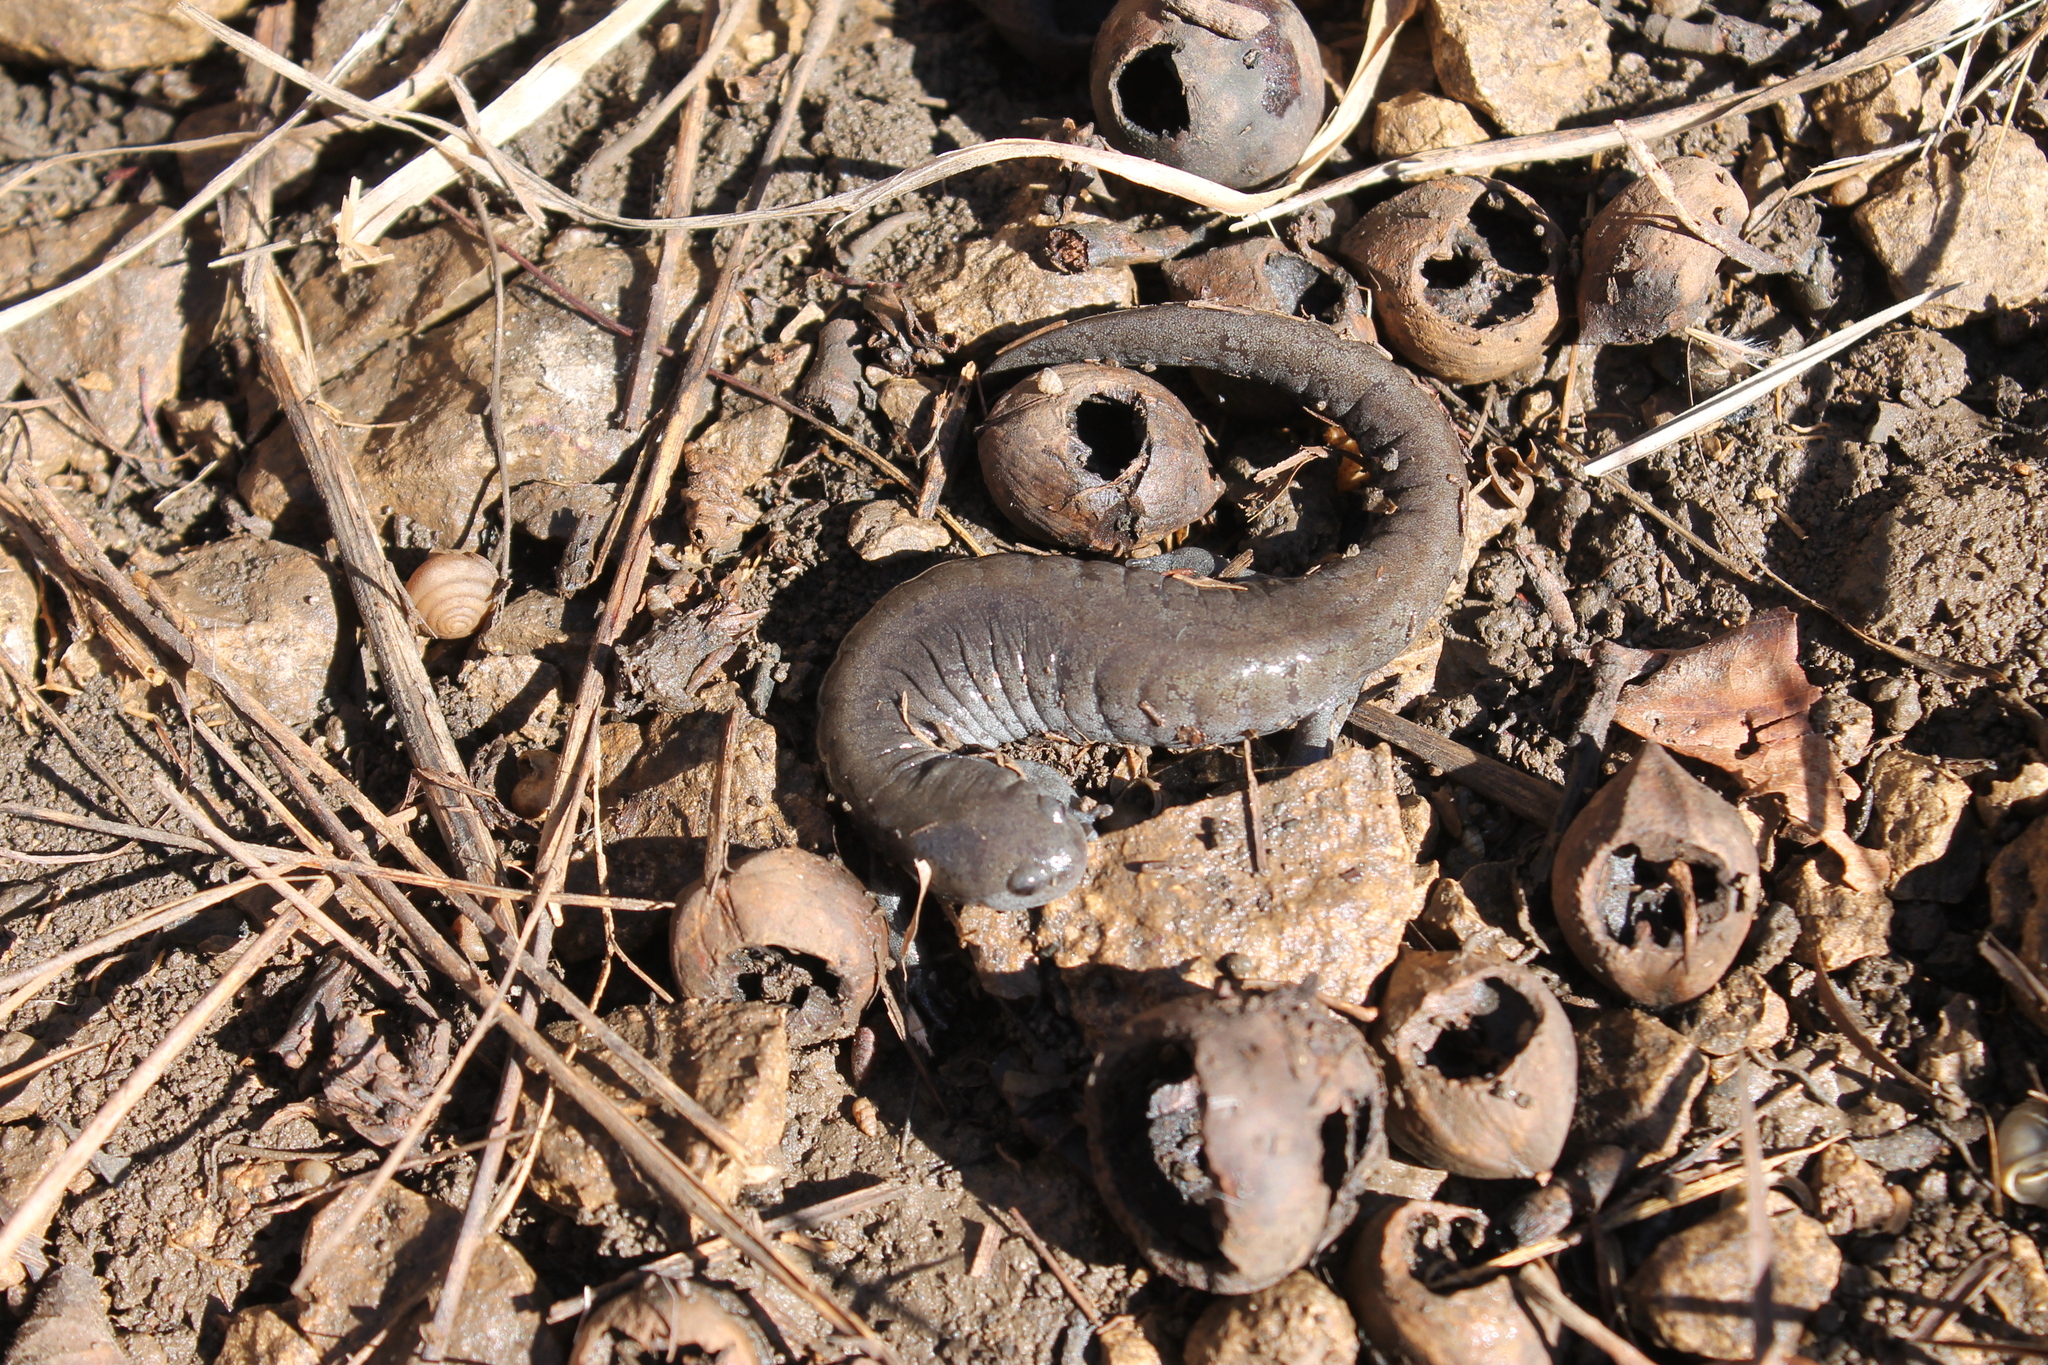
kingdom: Animalia
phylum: Chordata
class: Amphibia
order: Caudata
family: Ambystomatidae
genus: Ambystoma
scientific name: Ambystoma barbouri
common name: Streamside salamander
